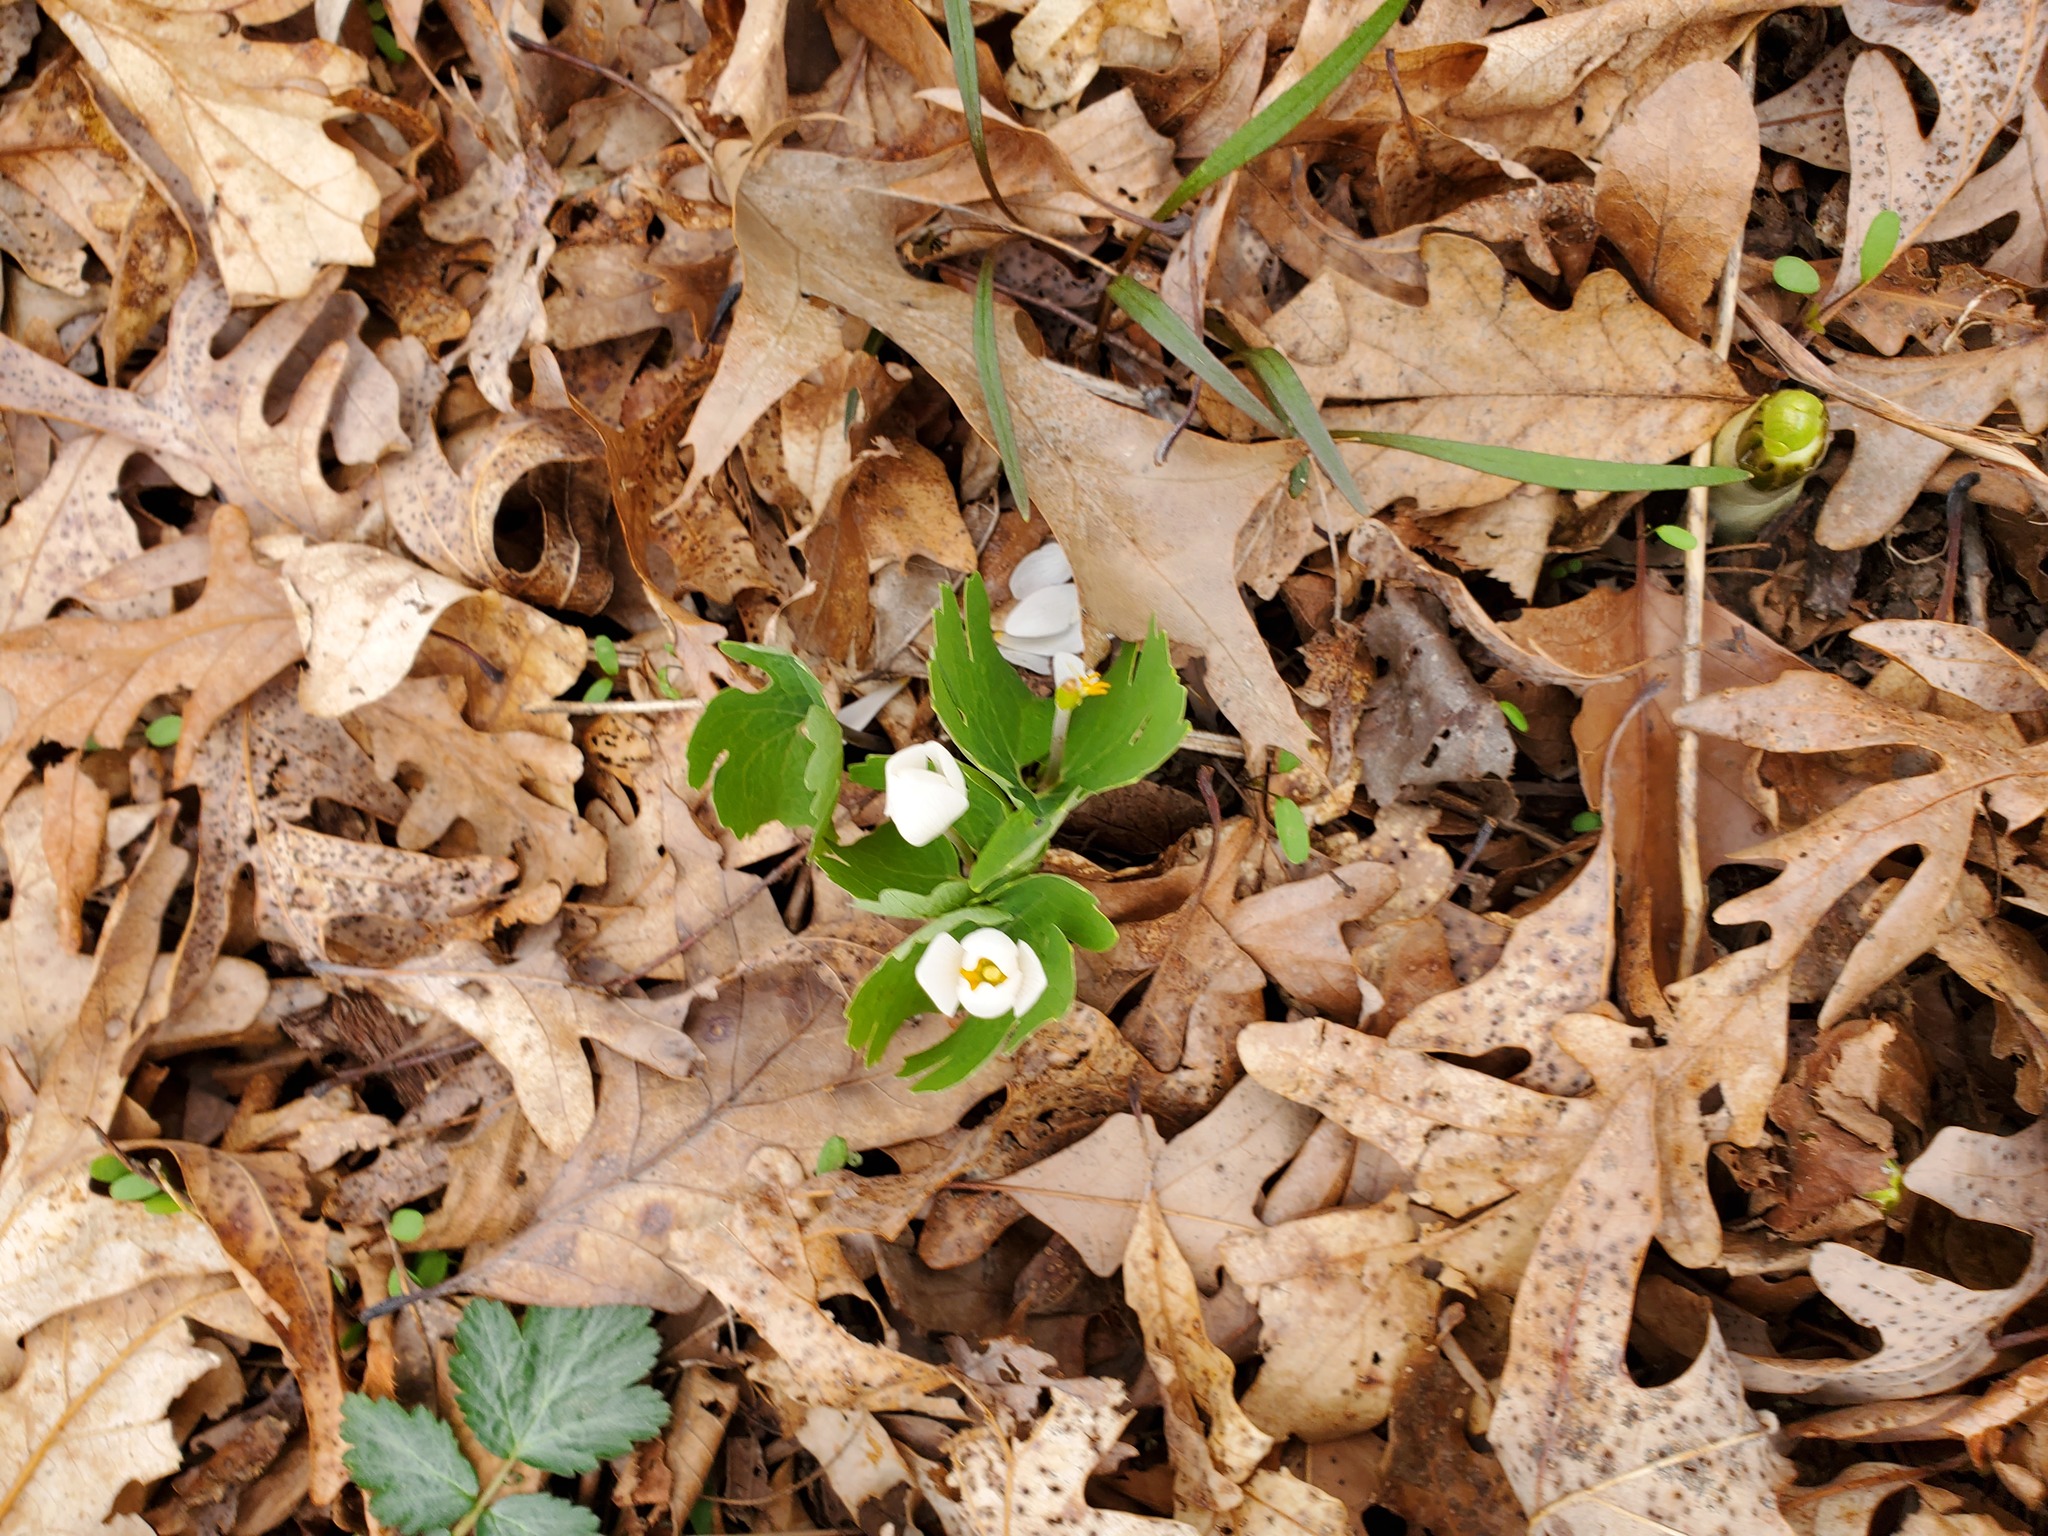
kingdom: Plantae
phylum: Tracheophyta
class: Magnoliopsida
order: Ranunculales
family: Papaveraceae
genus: Sanguinaria
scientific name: Sanguinaria canadensis
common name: Bloodroot
